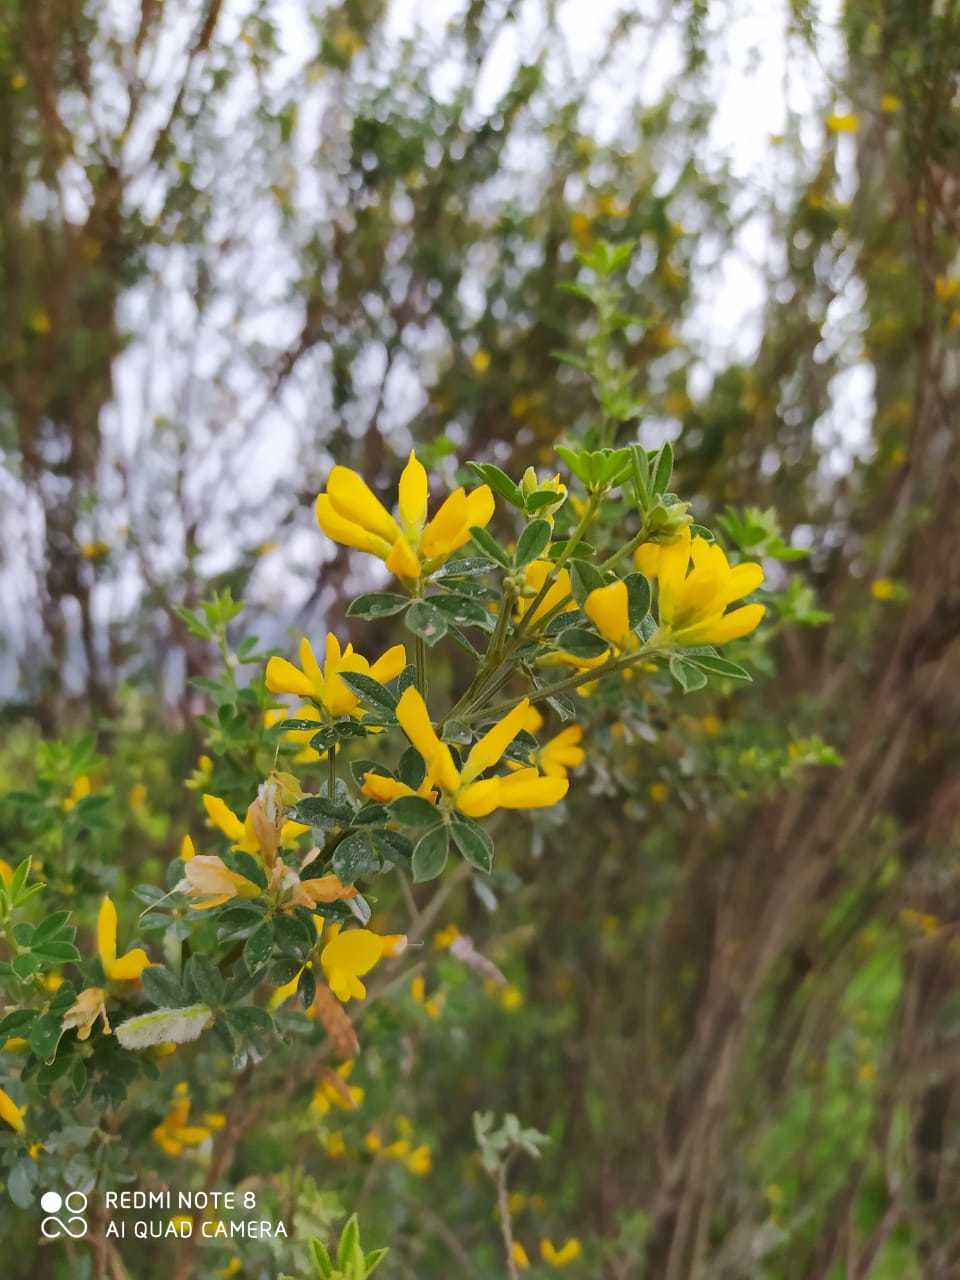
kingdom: Plantae
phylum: Tracheophyta
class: Magnoliopsida
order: Fabales
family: Fabaceae
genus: Genista
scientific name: Genista monspessulana
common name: Montpellier broom
